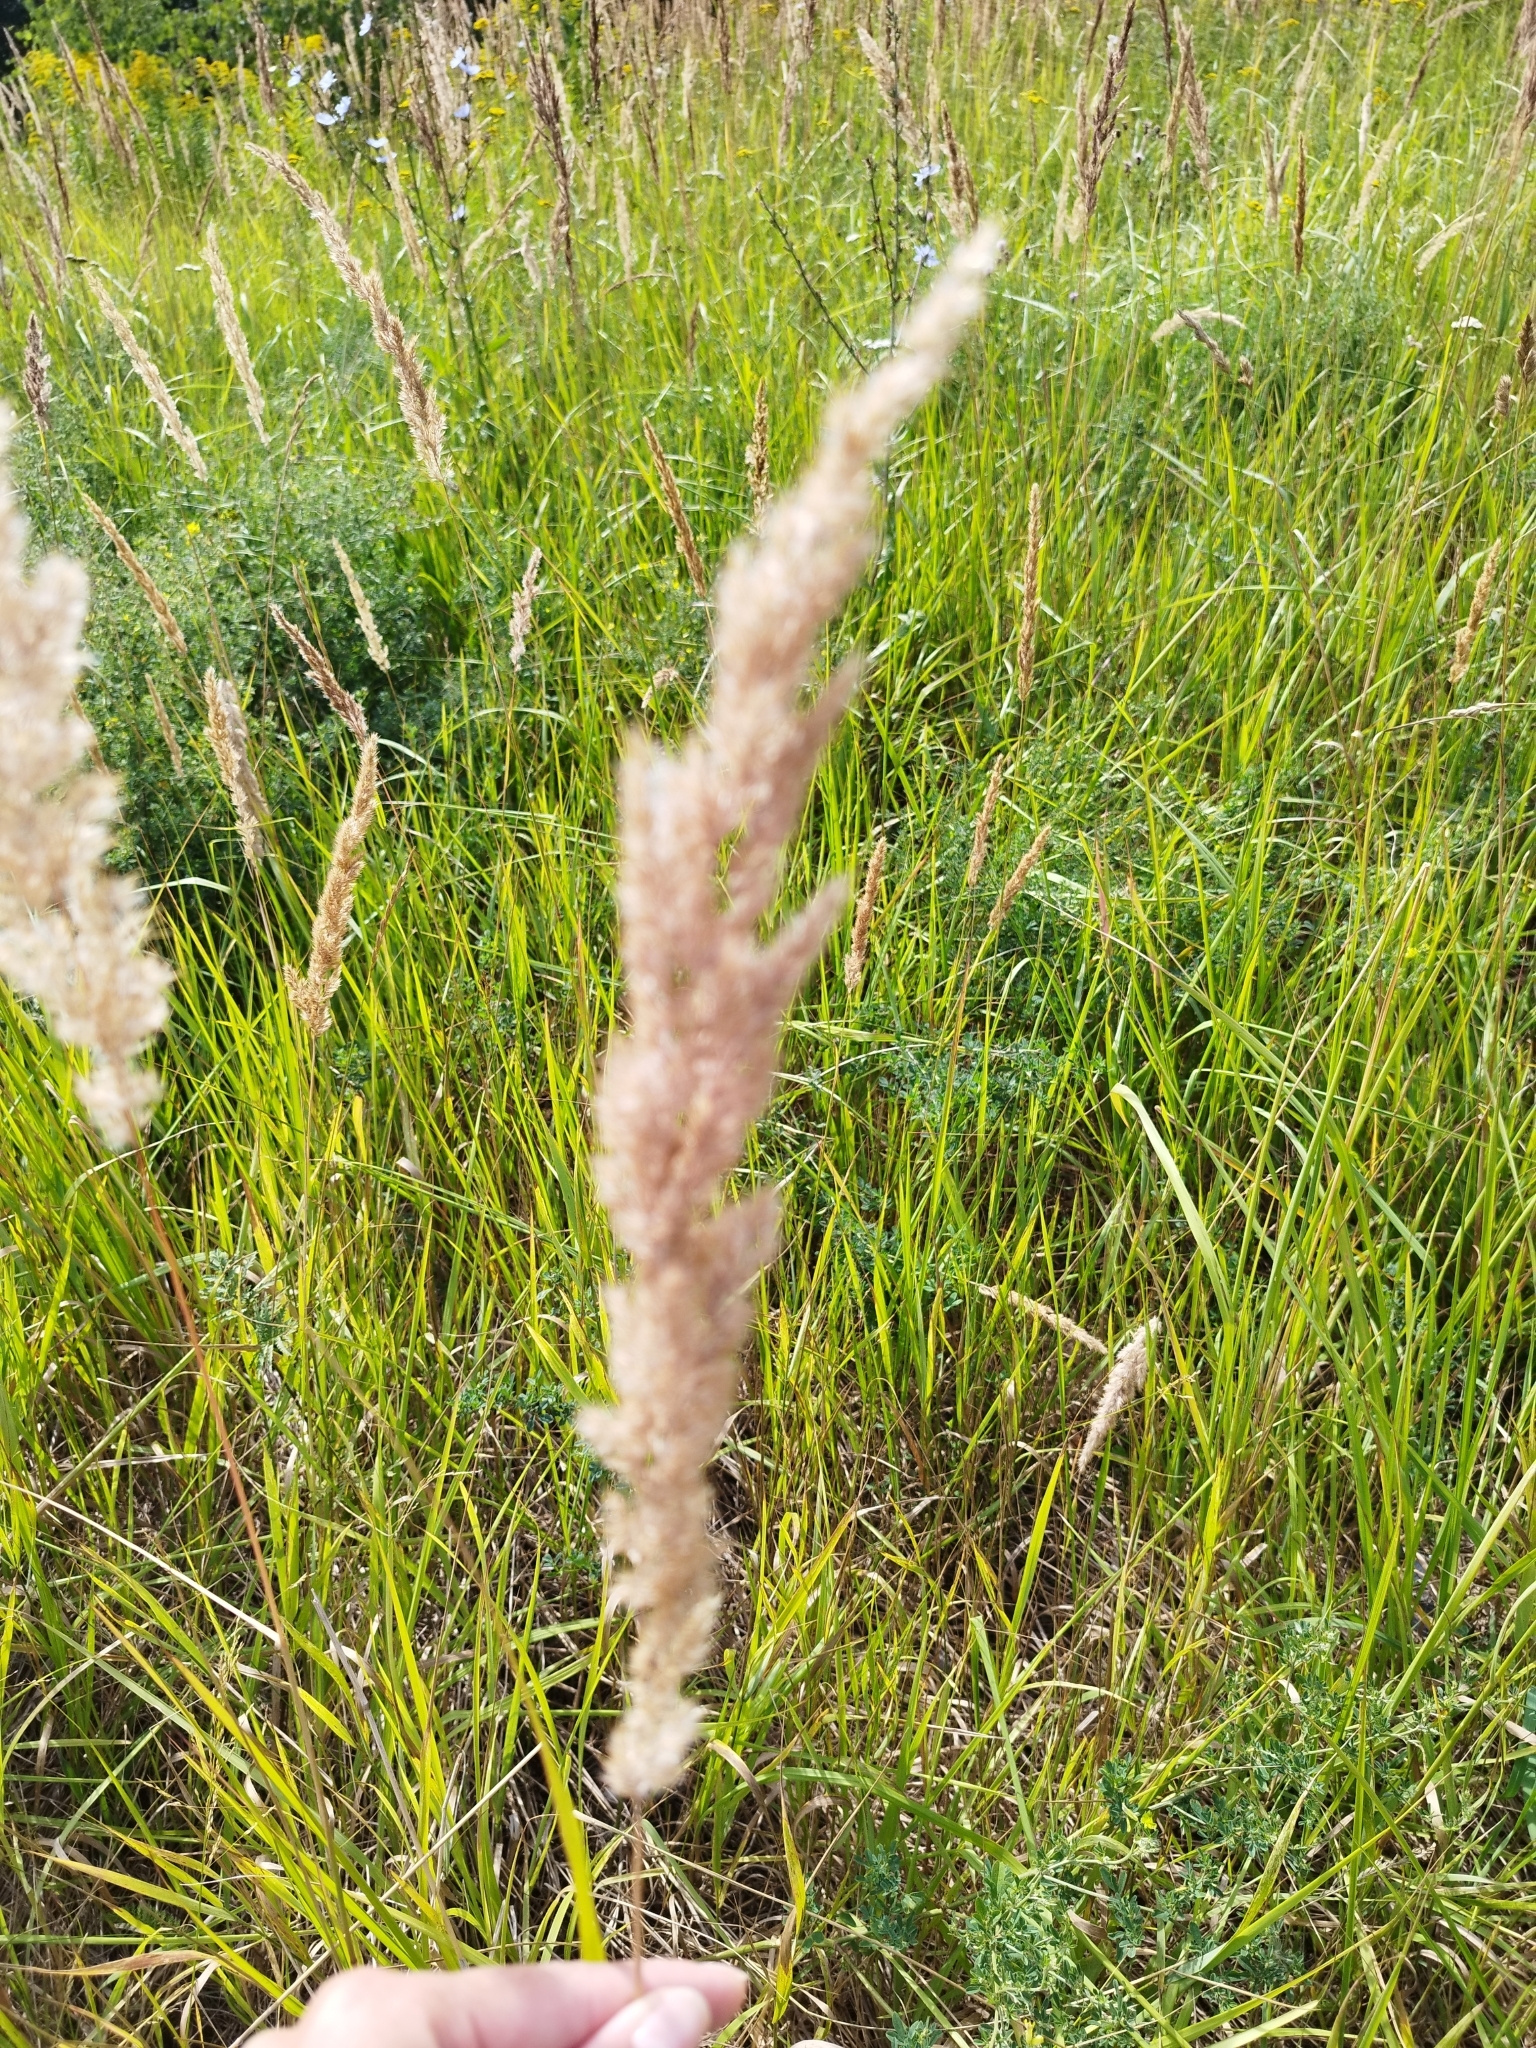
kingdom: Plantae
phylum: Tracheophyta
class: Liliopsida
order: Poales
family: Poaceae
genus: Calamagrostis
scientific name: Calamagrostis epigejos
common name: Wood small-reed
